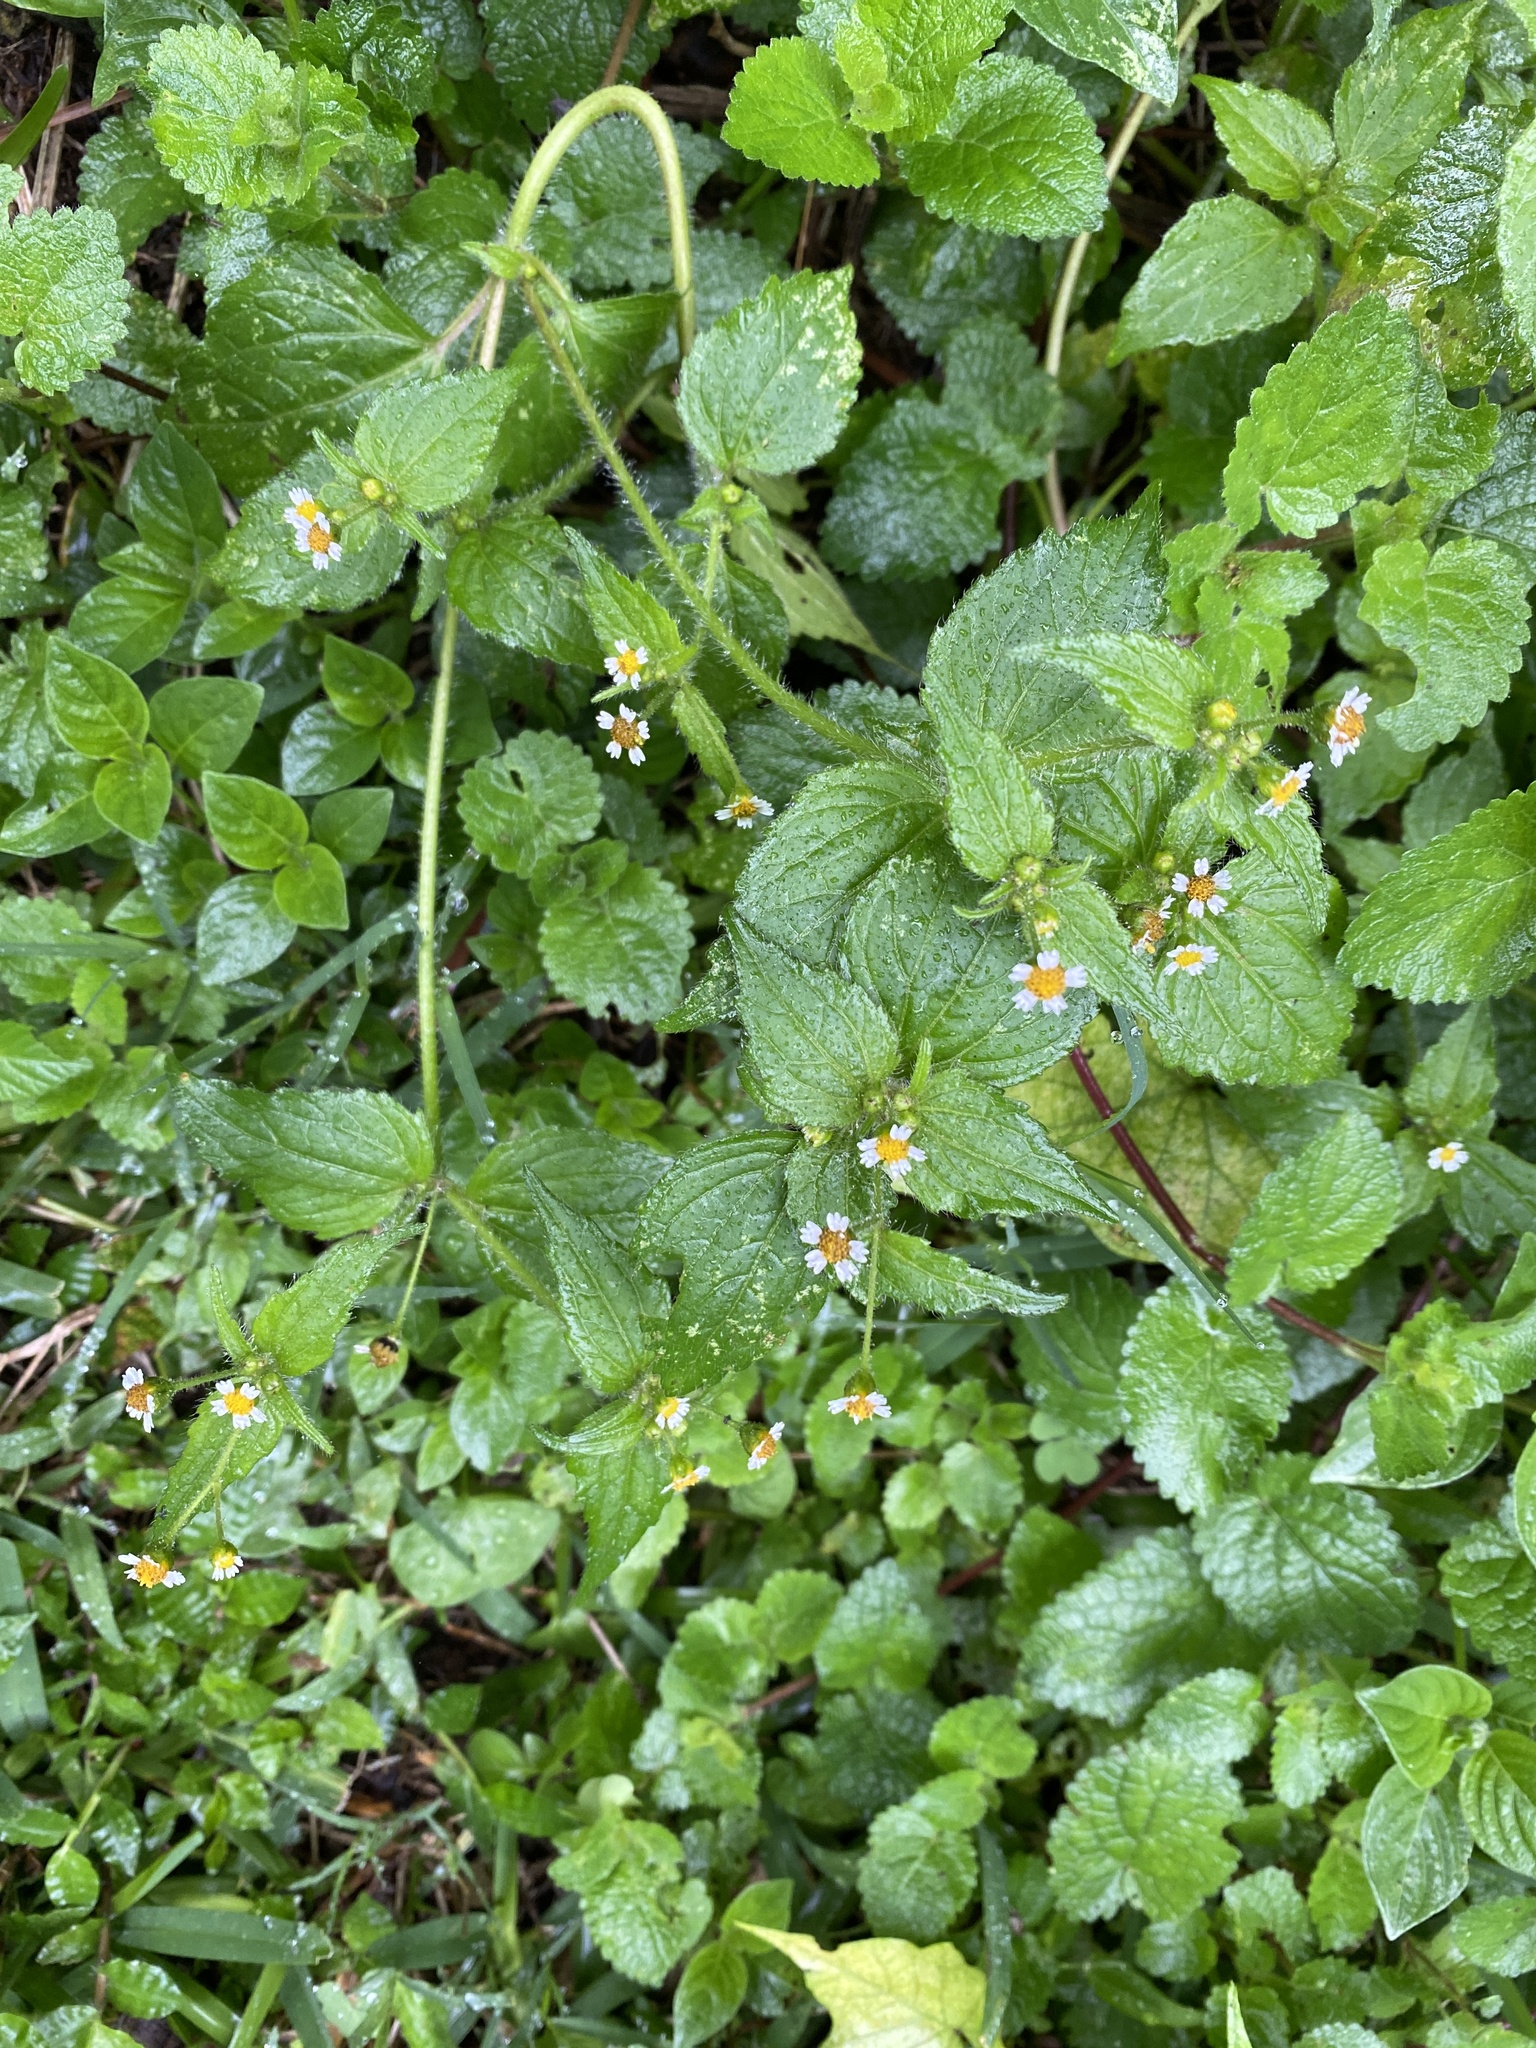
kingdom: Plantae
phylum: Tracheophyta
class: Magnoliopsida
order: Asterales
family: Asteraceae
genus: Galinsoga
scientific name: Galinsoga quadriradiata
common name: Shaggy soldier
